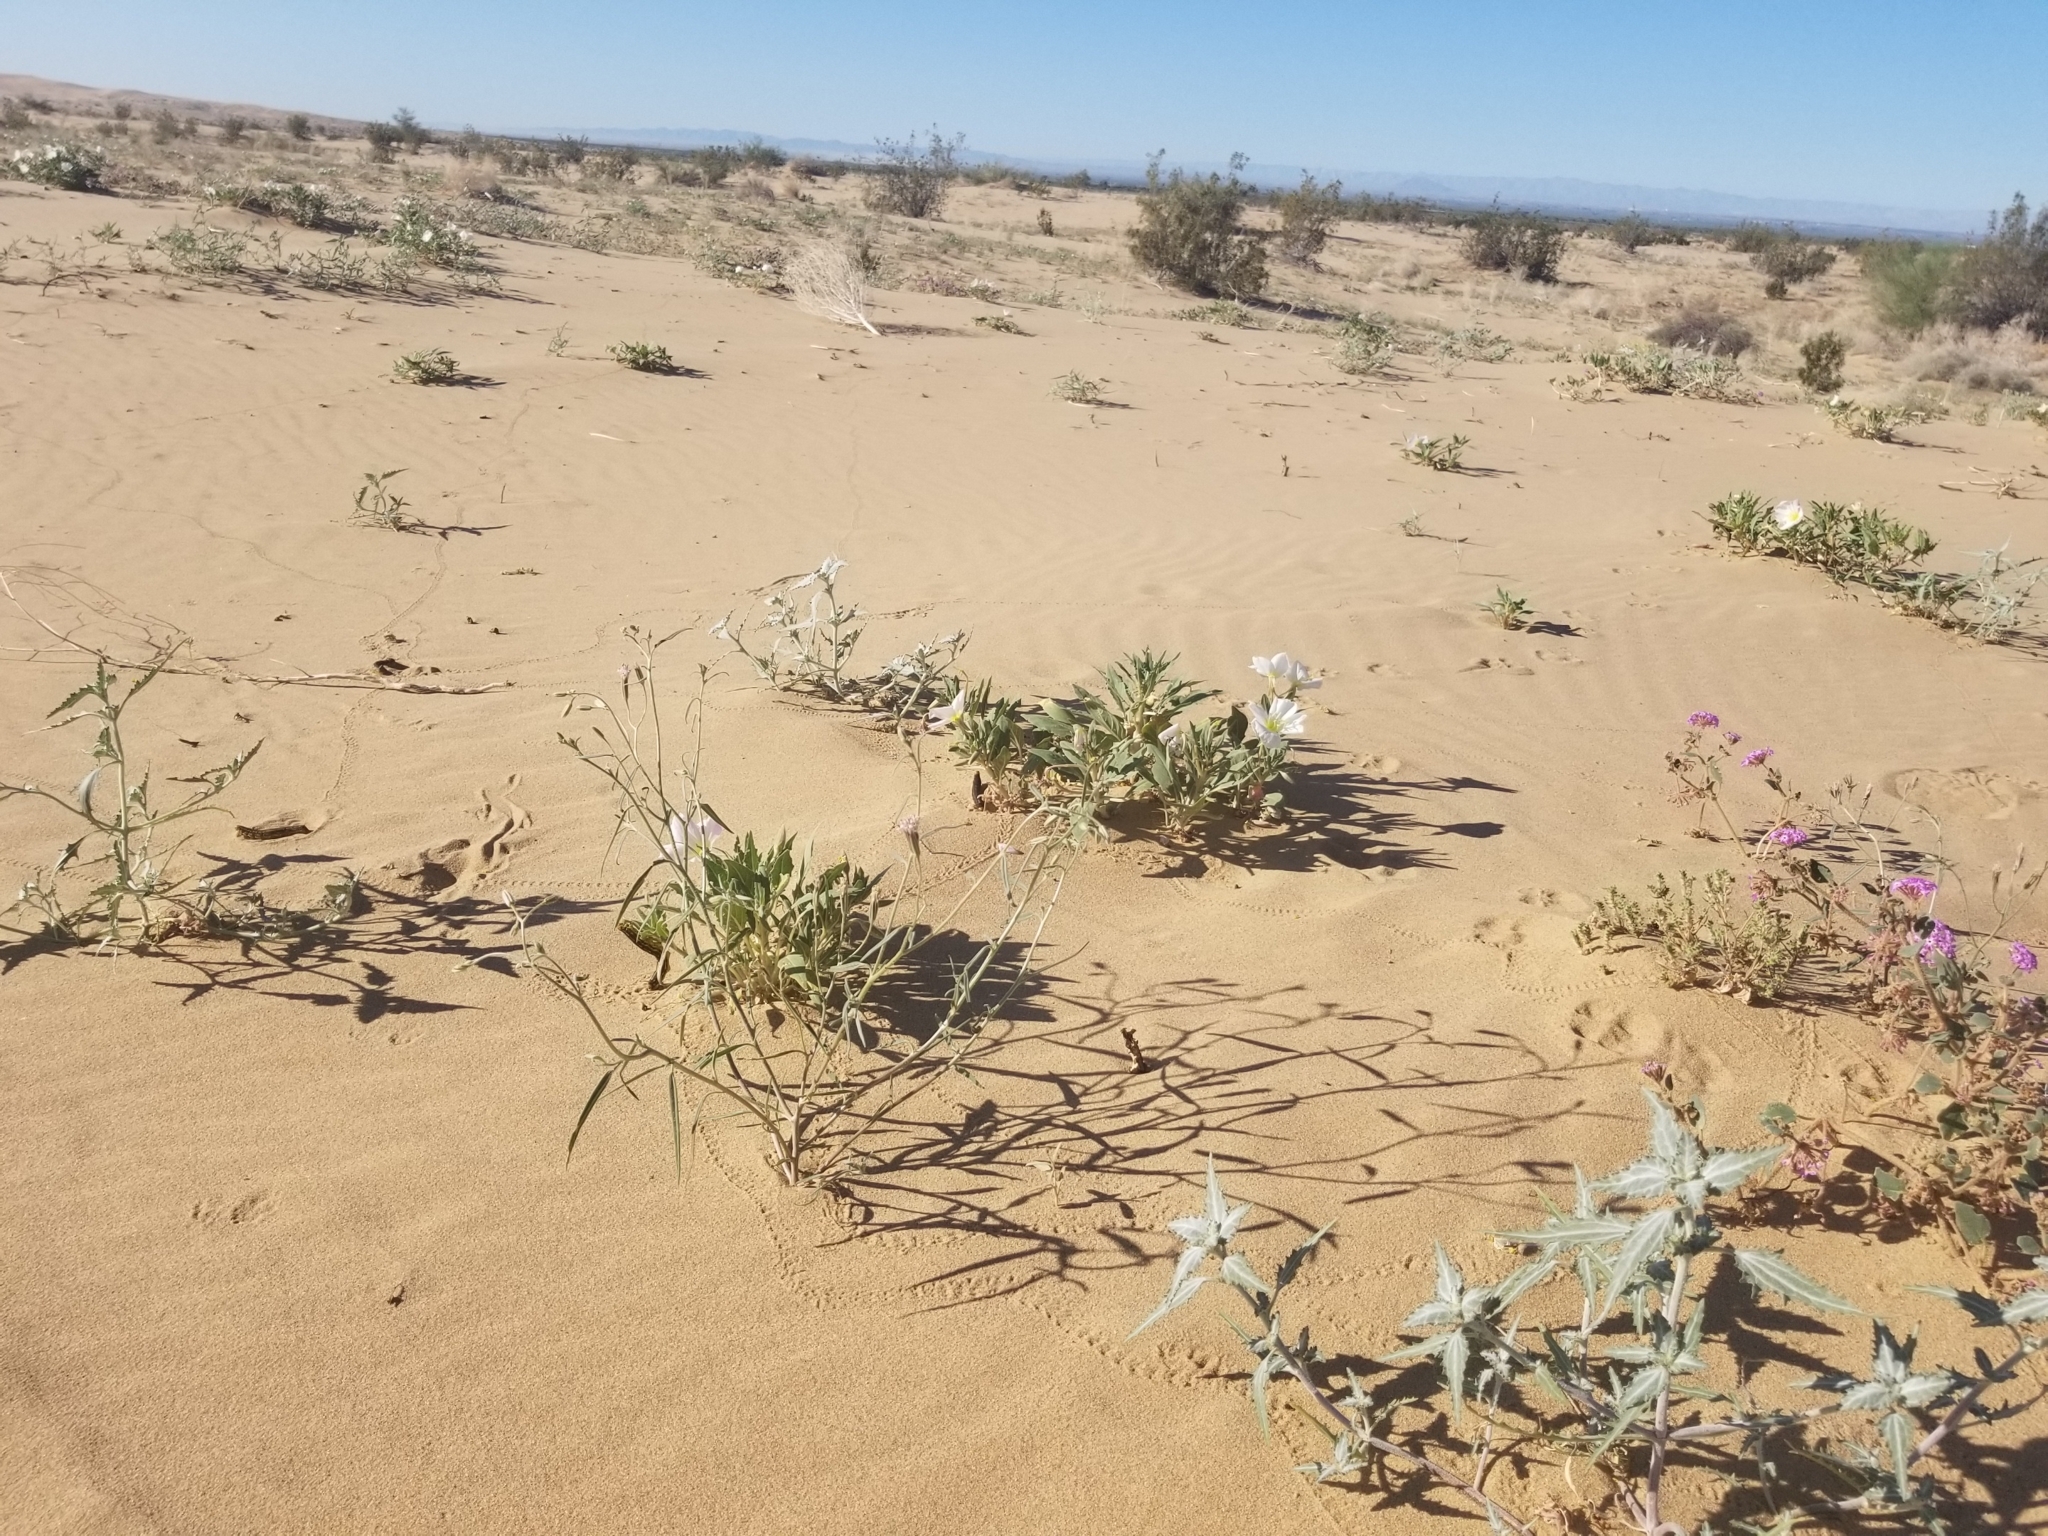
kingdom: Plantae
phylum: Tracheophyta
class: Magnoliopsida
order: Asterales
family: Asteraceae
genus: Palafoxia
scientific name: Palafoxia arida
